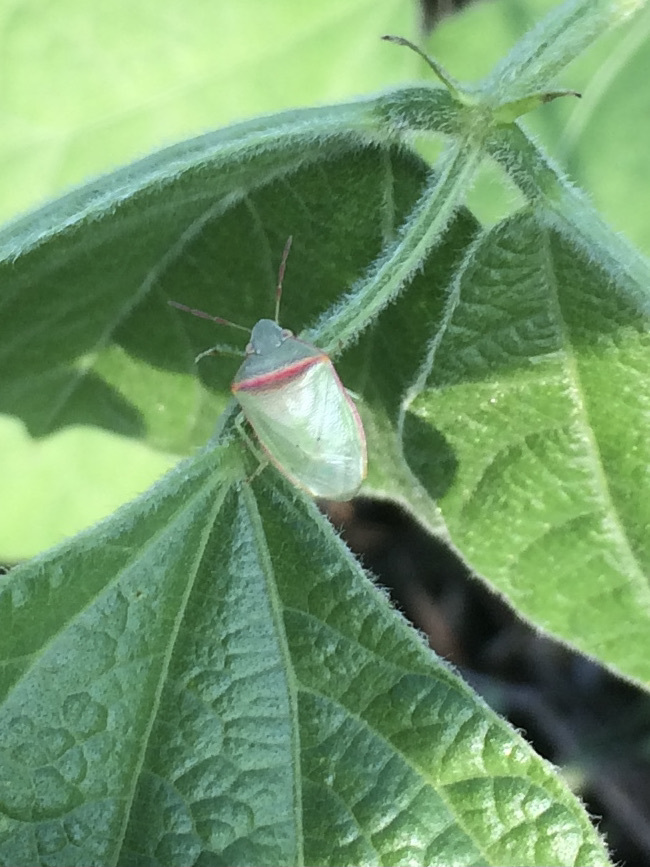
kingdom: Animalia
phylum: Arthropoda
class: Insecta
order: Hemiptera
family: Pentatomidae
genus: Piezodorus
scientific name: Piezodorus hybneri
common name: Stink bug
